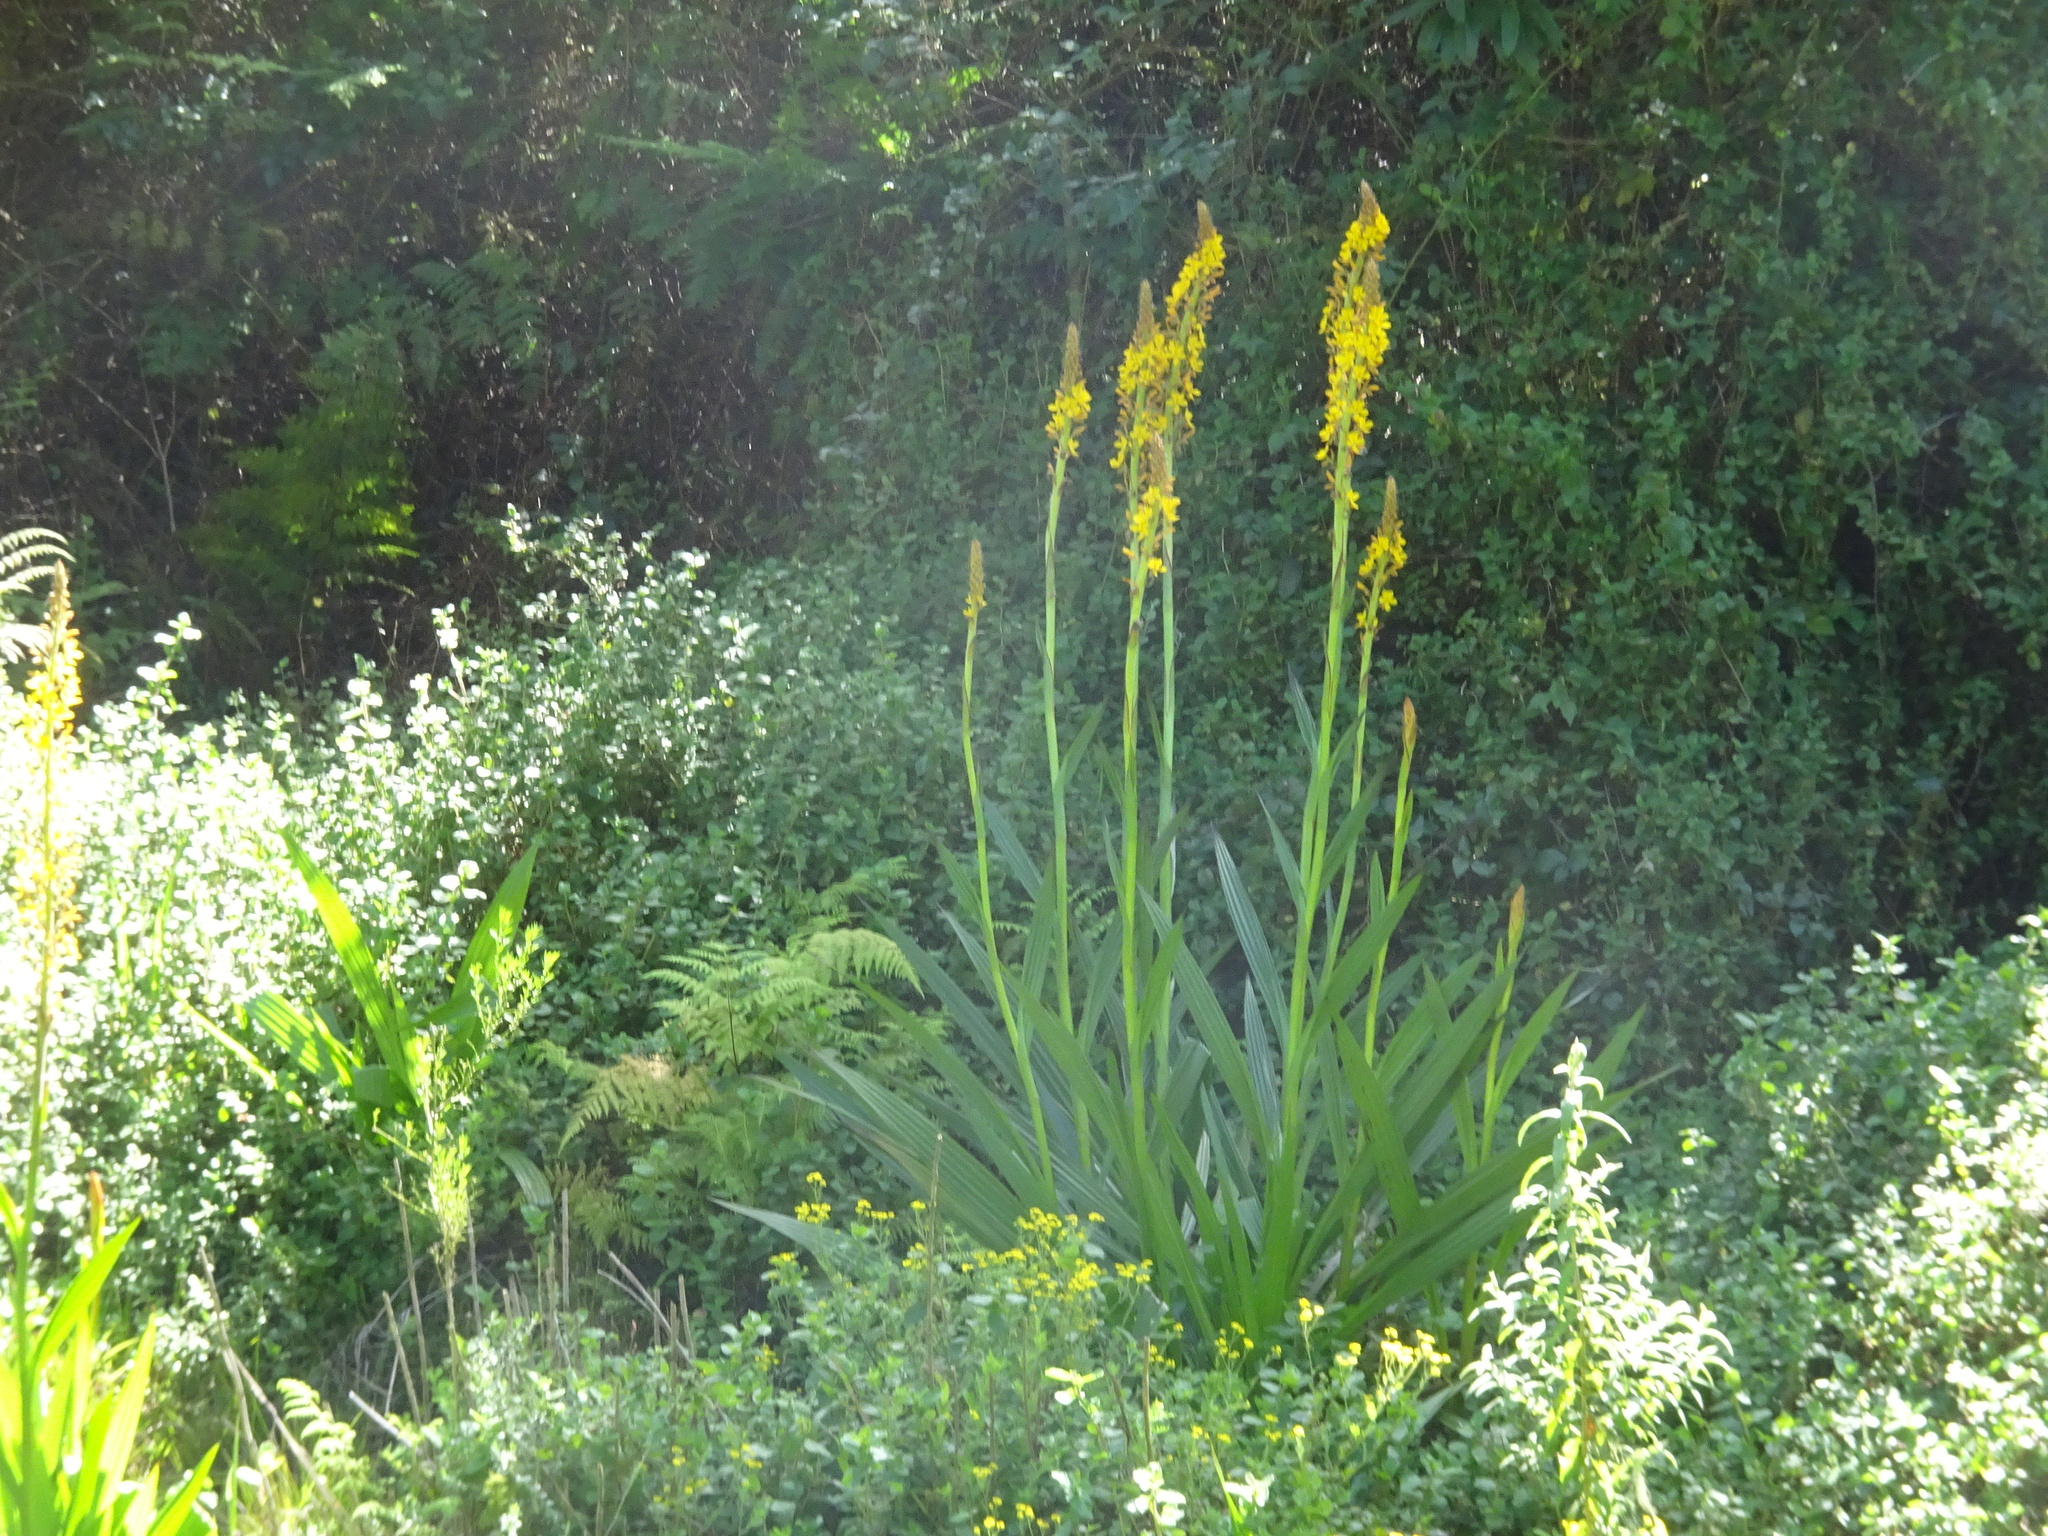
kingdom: Plantae
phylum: Tracheophyta
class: Liliopsida
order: Commelinales
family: Haemodoraceae
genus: Wachendorfia
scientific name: Wachendorfia thyrsiflora
